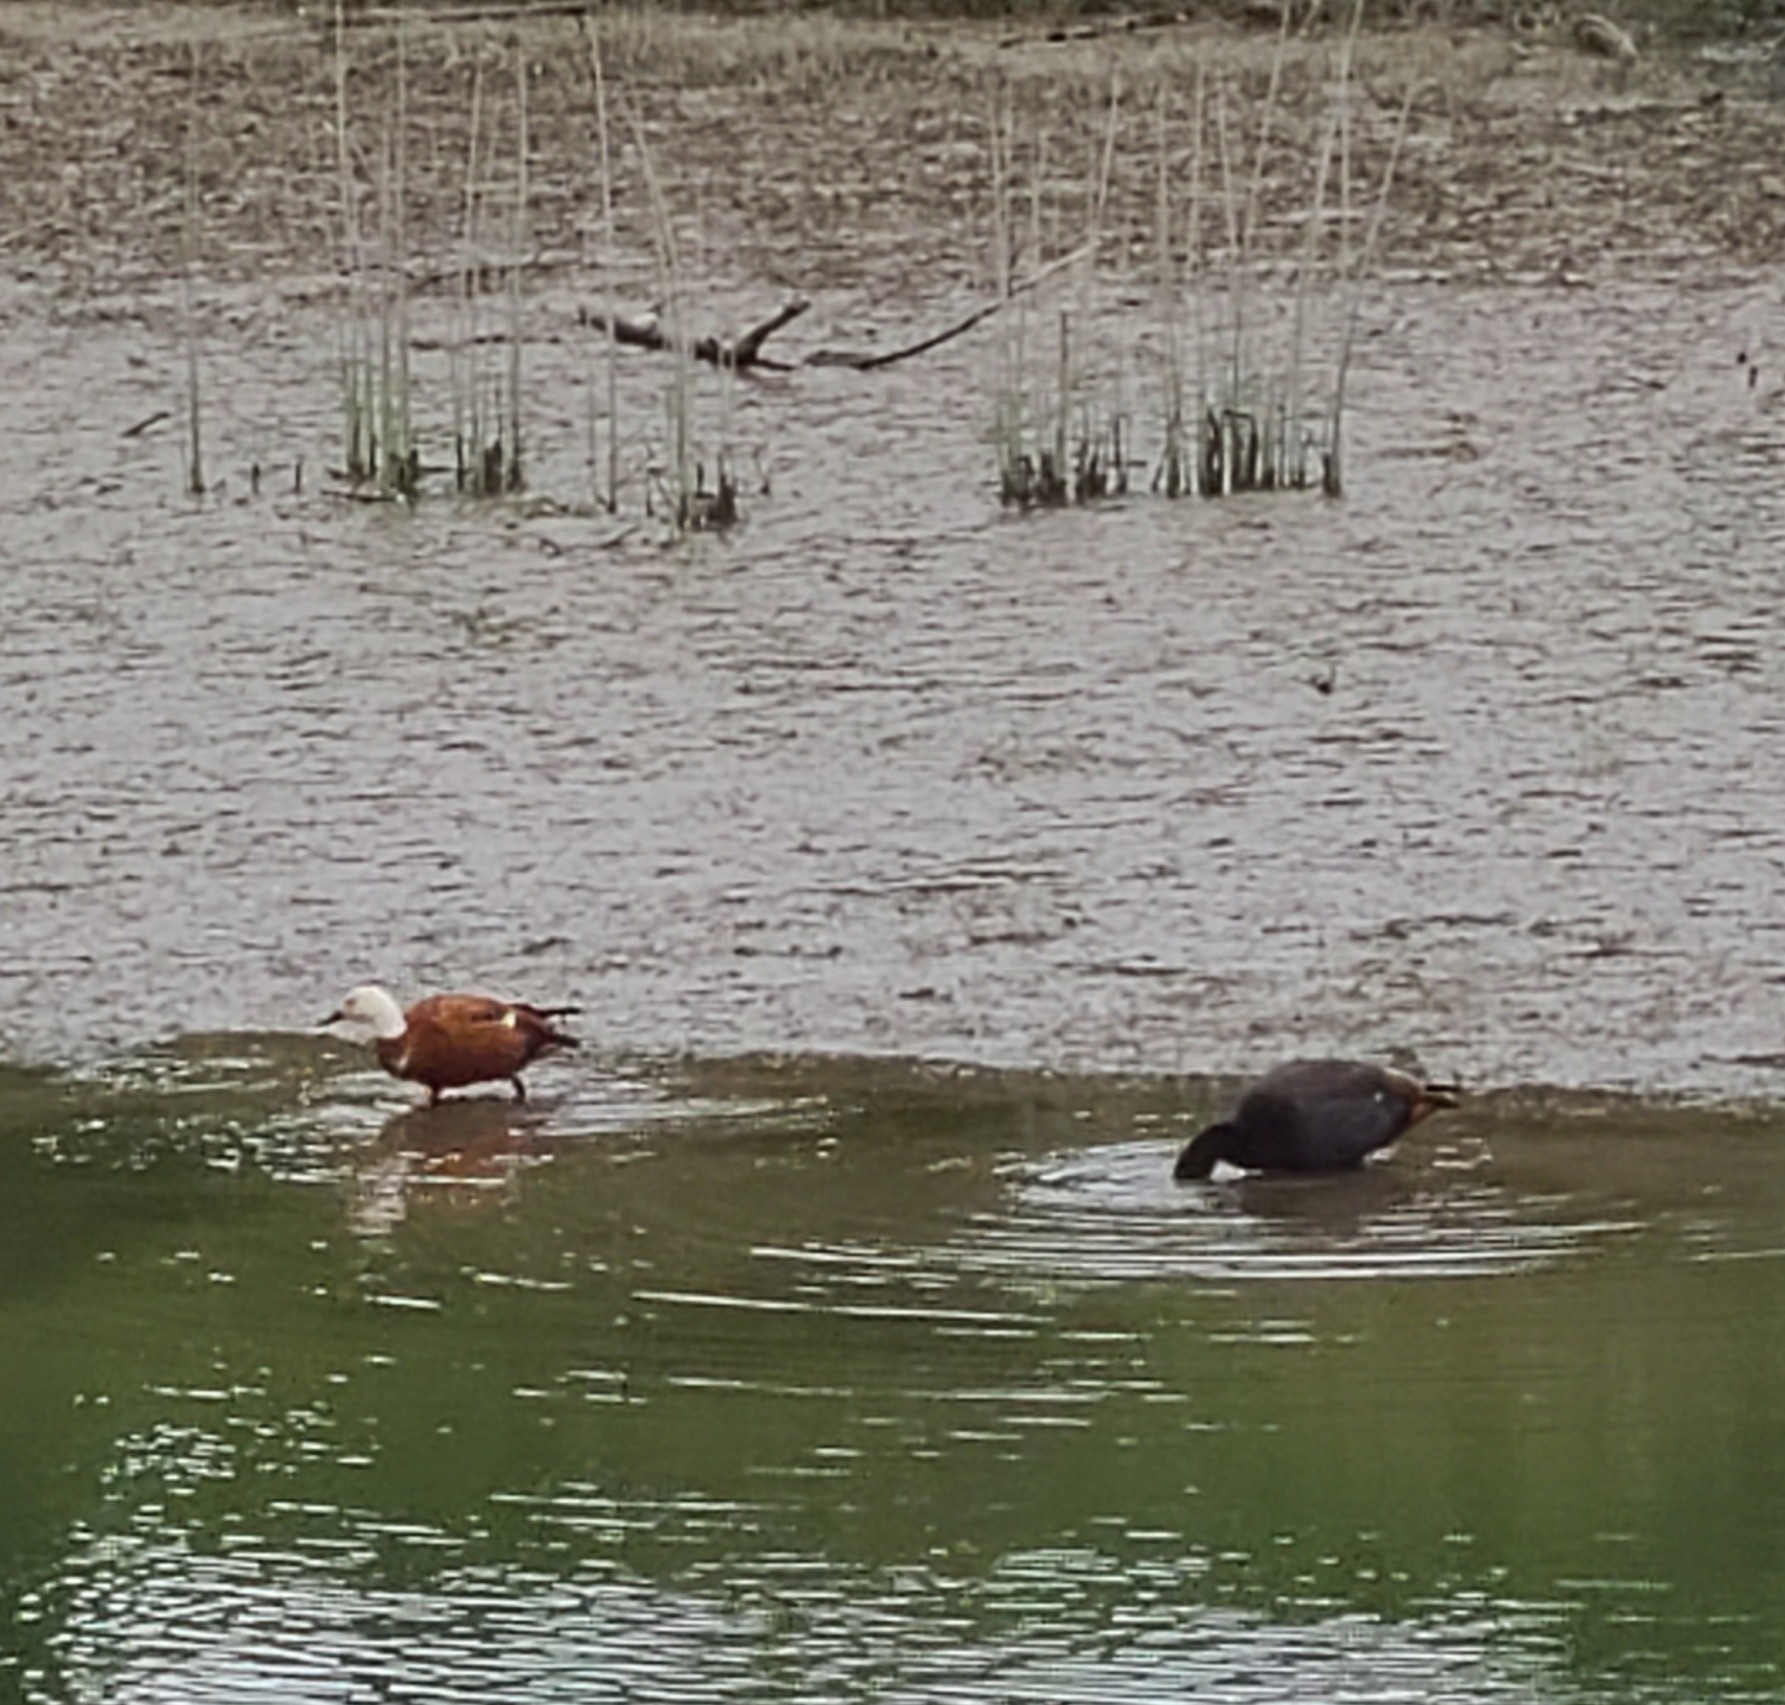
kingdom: Animalia
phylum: Chordata
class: Aves
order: Anseriformes
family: Anatidae
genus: Tadorna
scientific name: Tadorna variegata
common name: Paradise shelduck
